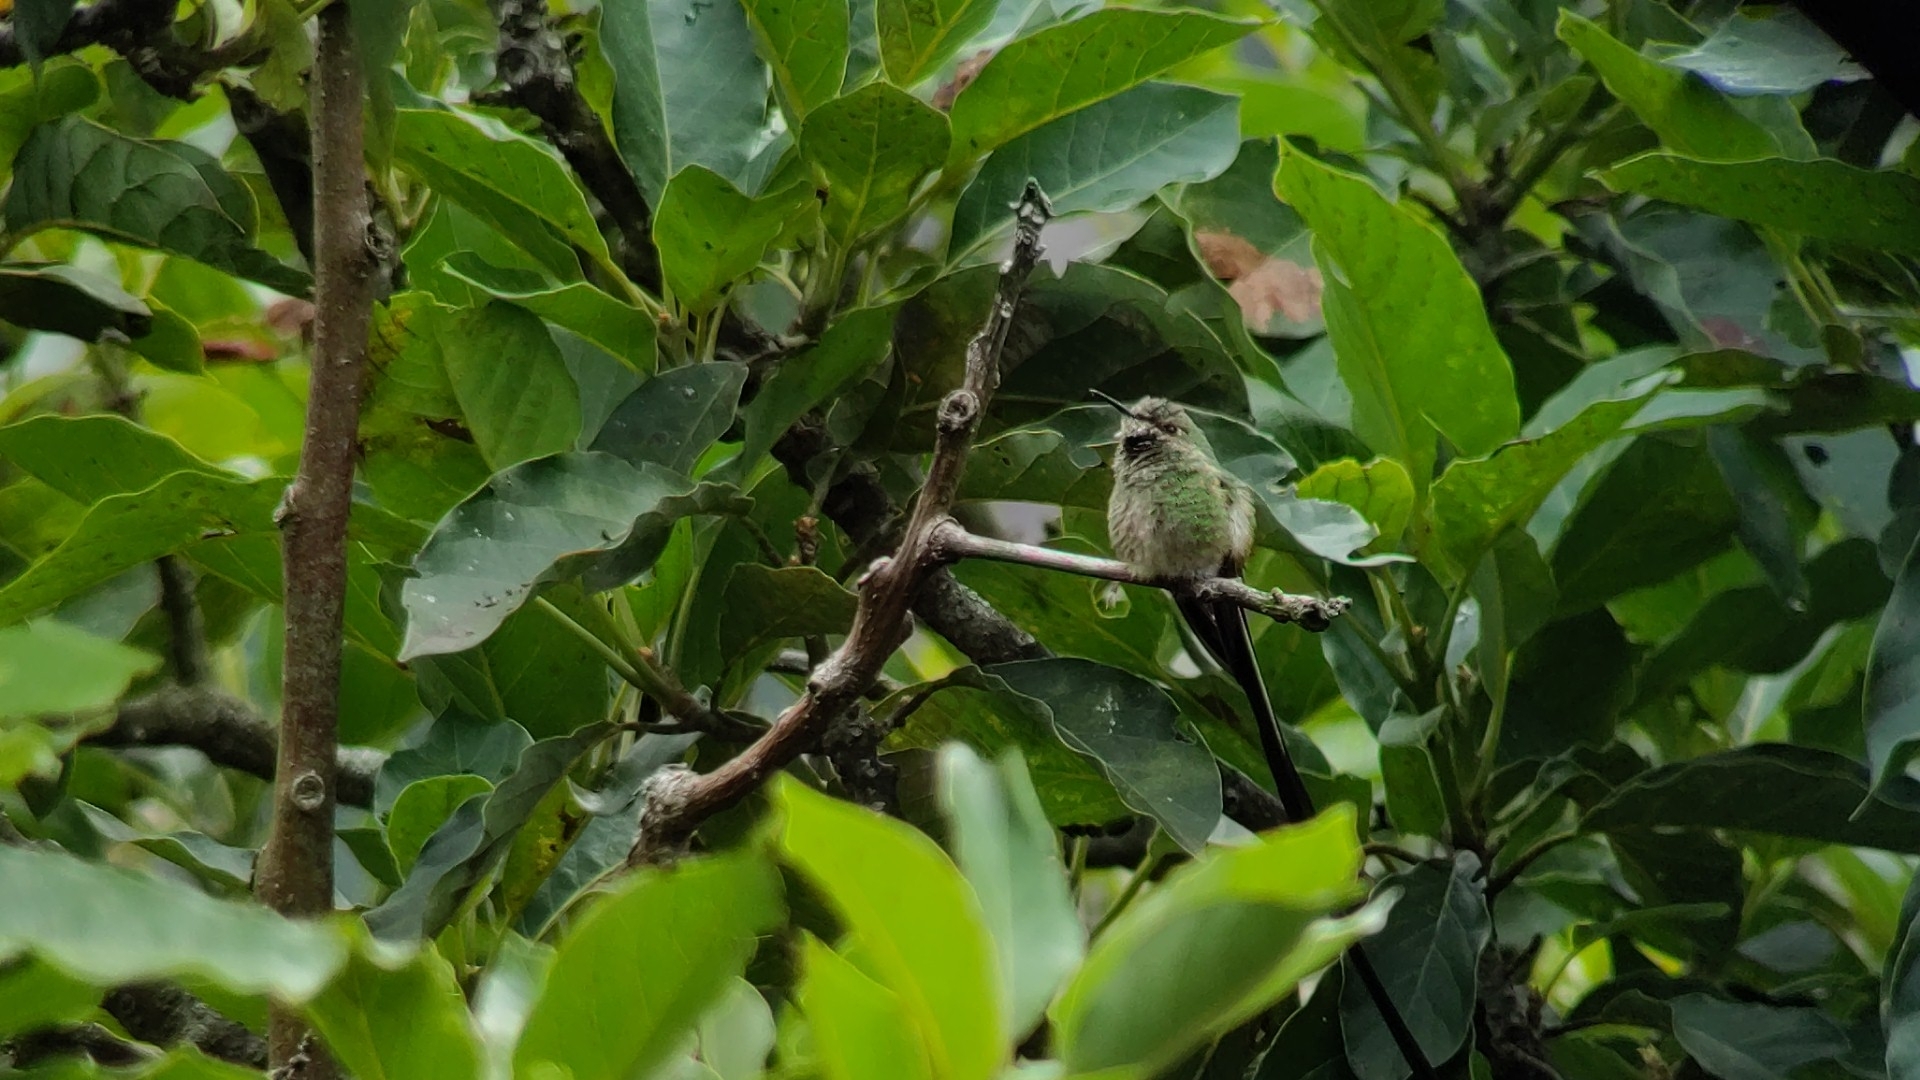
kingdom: Animalia
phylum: Chordata
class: Aves
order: Apodiformes
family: Trochilidae
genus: Lesbia
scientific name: Lesbia victoriae
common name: Black-tailed trainbearer
